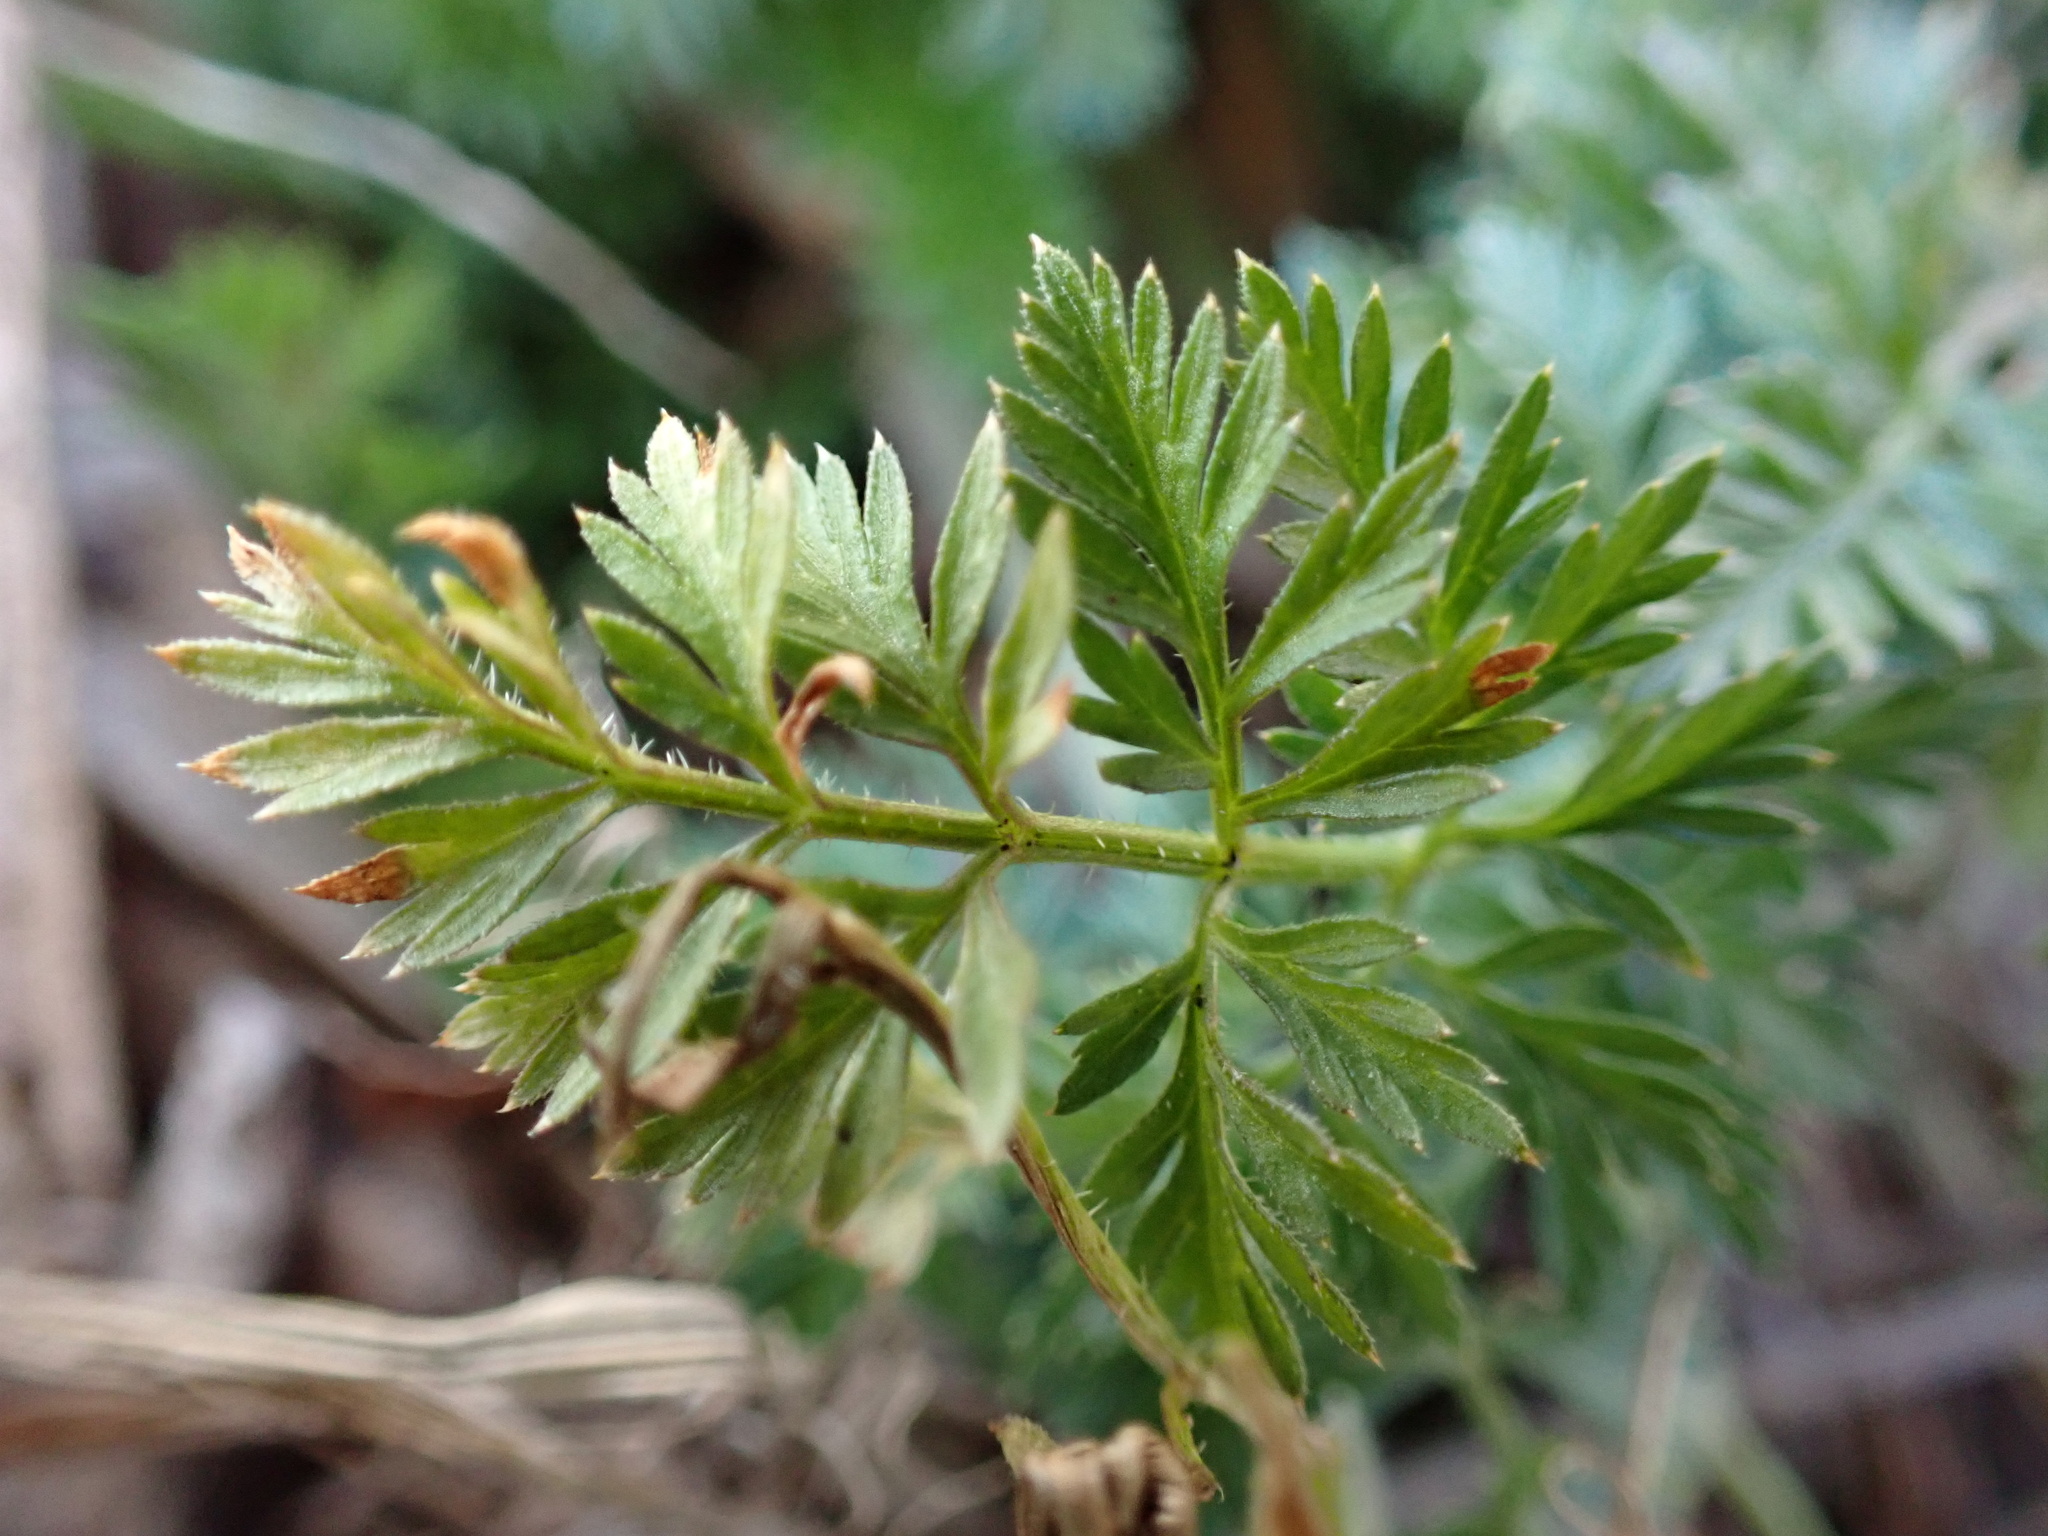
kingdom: Plantae
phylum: Tracheophyta
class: Magnoliopsida
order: Apiales
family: Apiaceae
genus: Daucus
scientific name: Daucus carota
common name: Wild carrot
